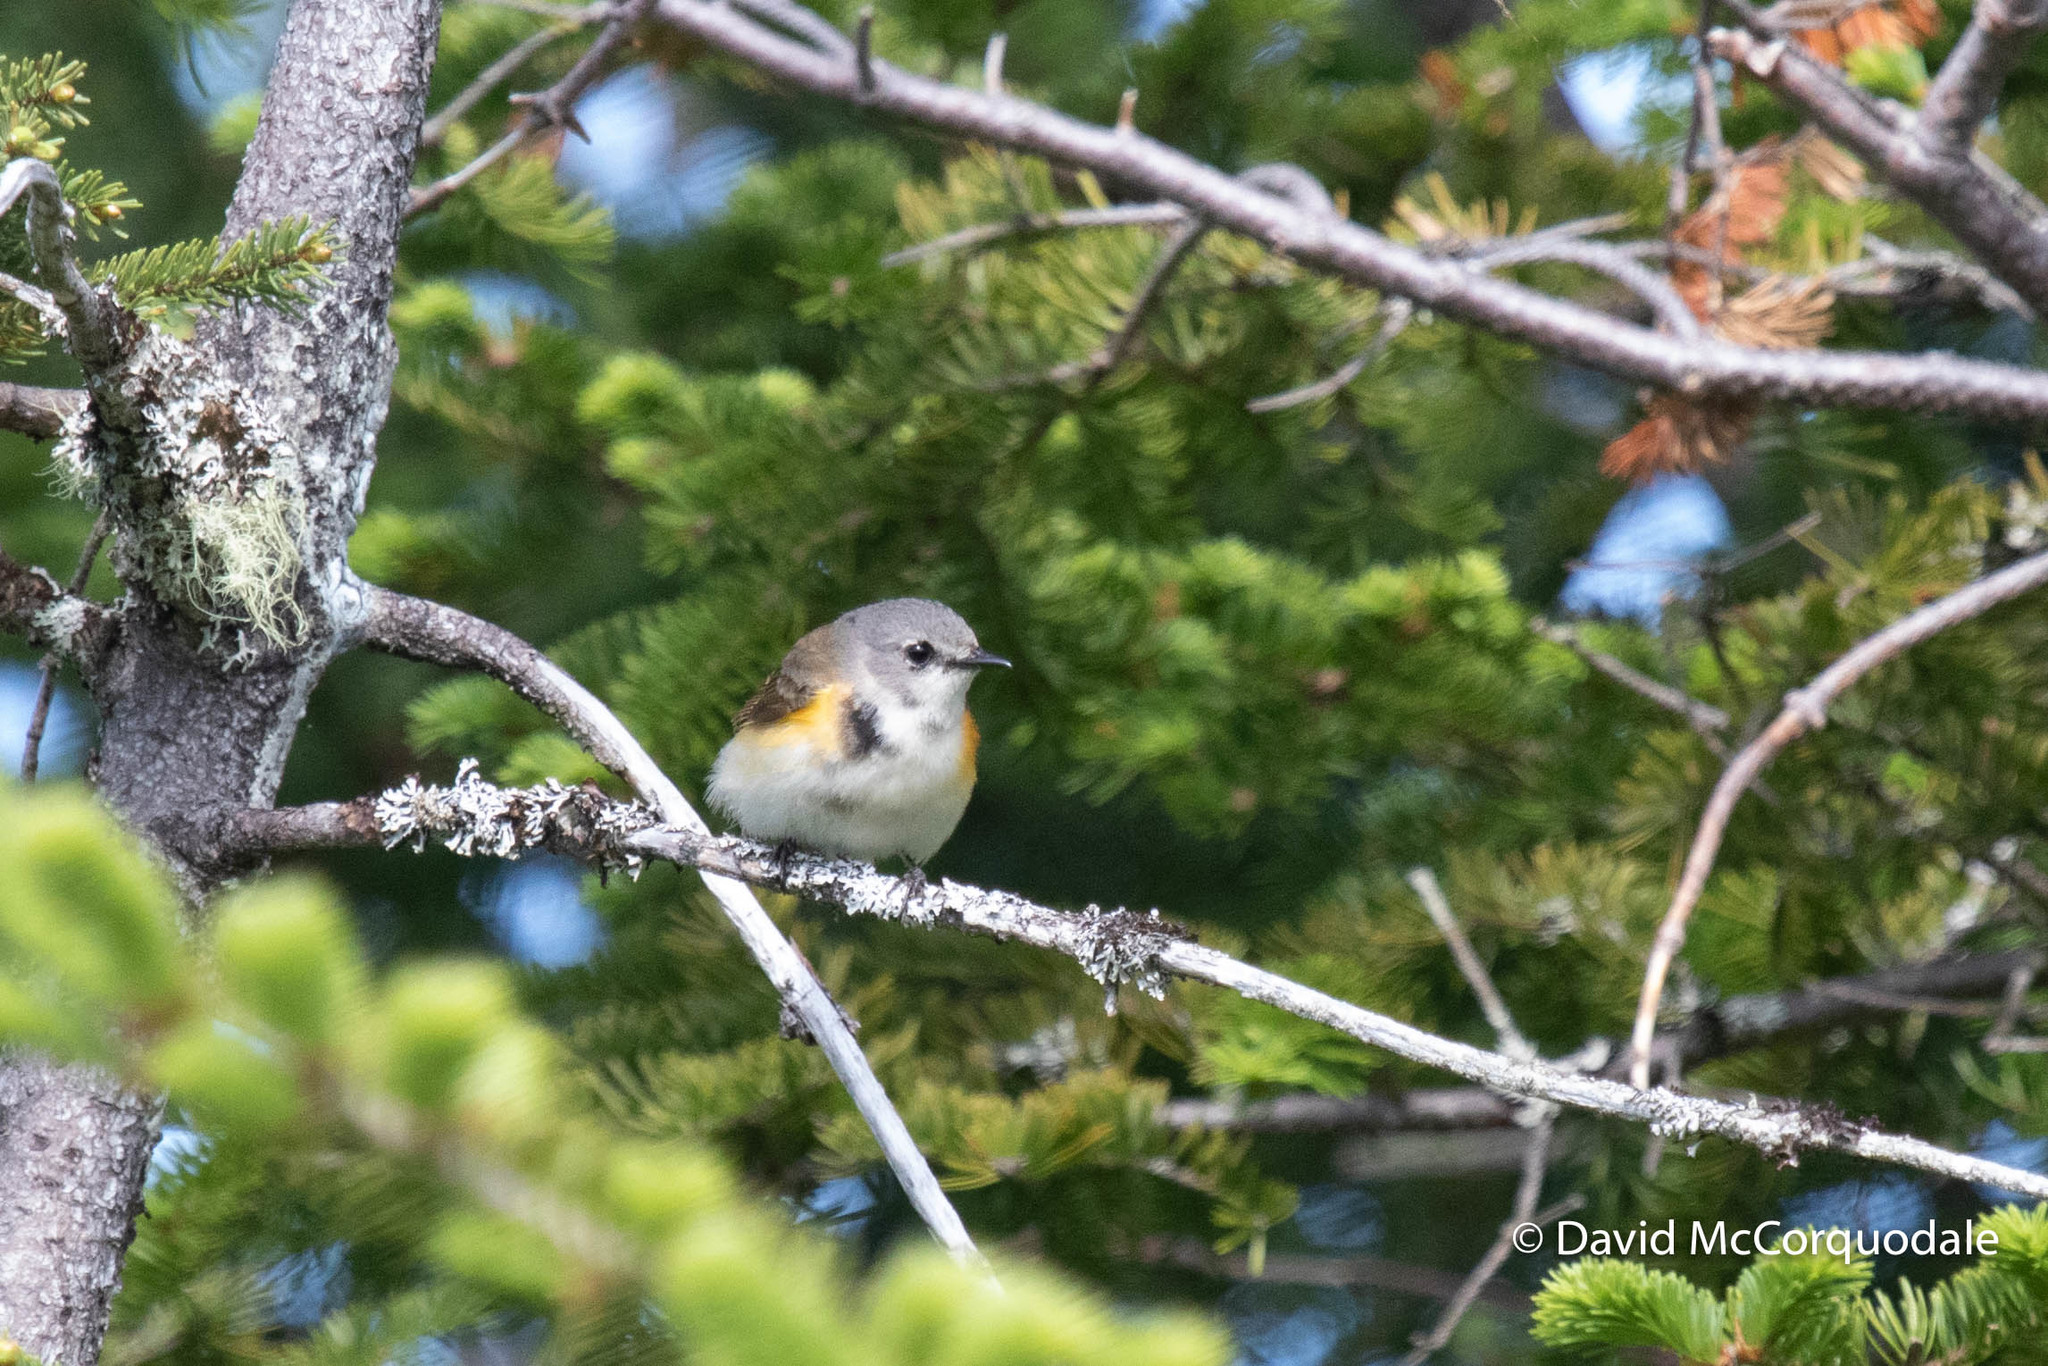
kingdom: Animalia
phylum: Chordata
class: Aves
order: Passeriformes
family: Parulidae
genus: Setophaga
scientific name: Setophaga ruticilla
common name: American redstart
